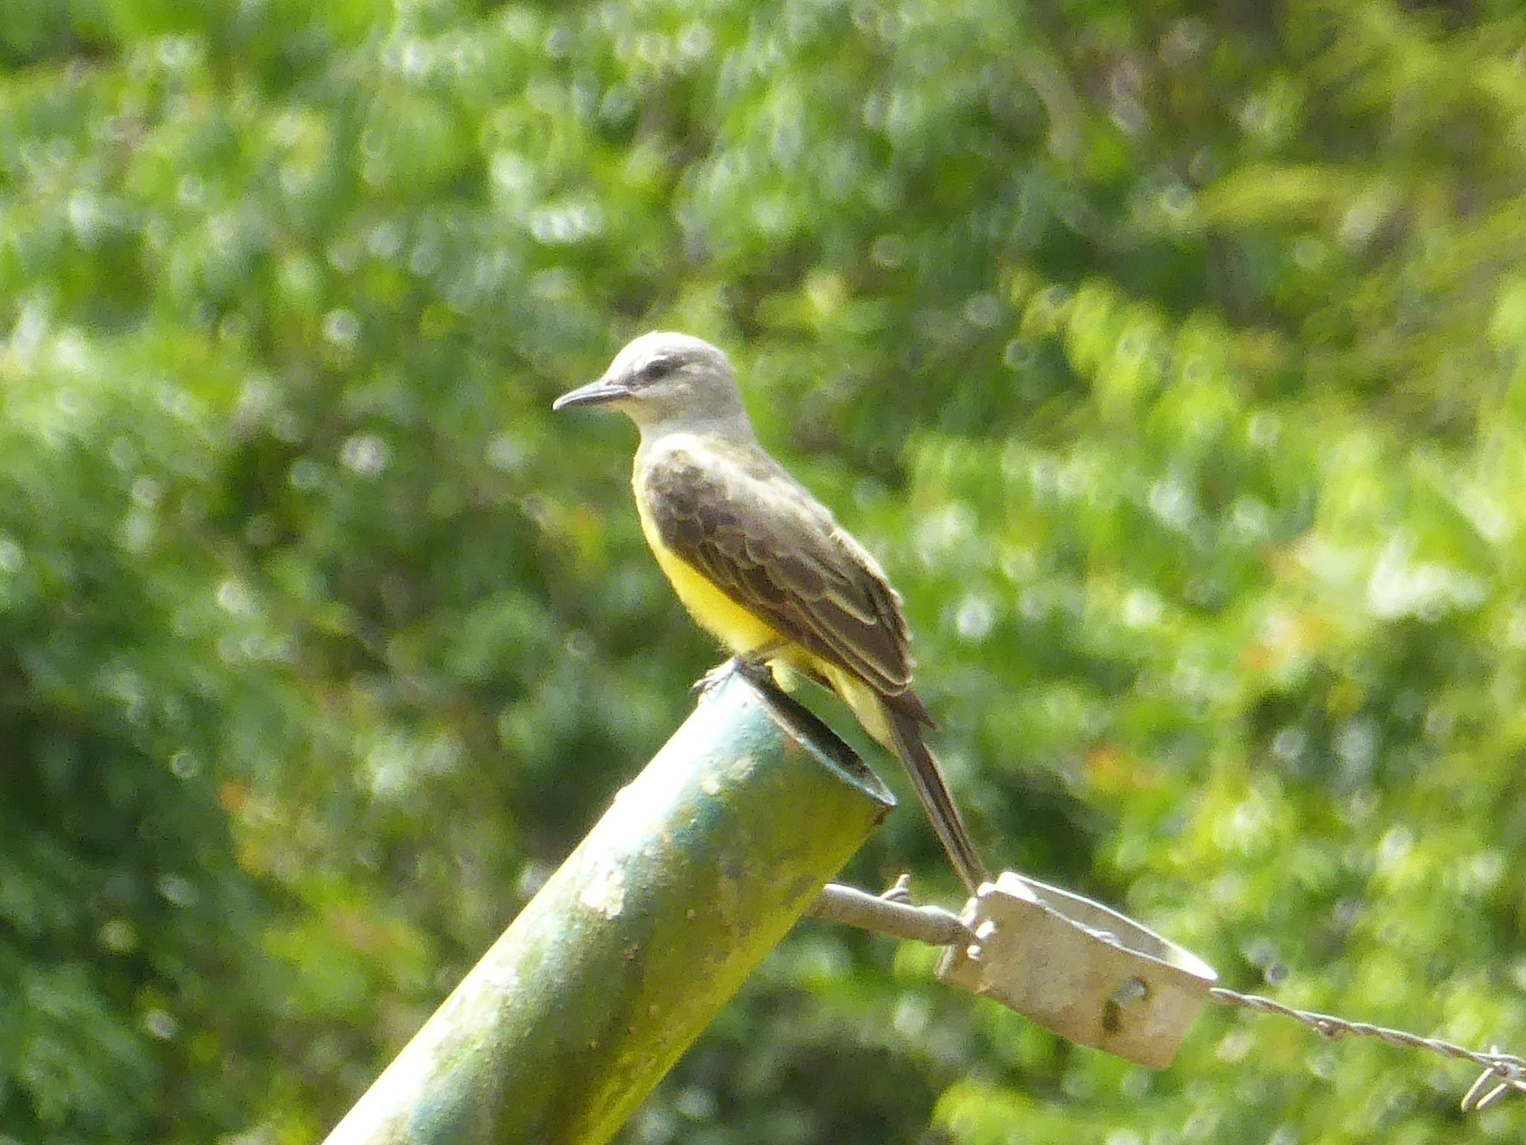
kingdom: Animalia
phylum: Chordata
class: Aves
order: Passeriformes
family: Tyrannidae
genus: Tyrannus
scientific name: Tyrannus melancholicus
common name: Tropical kingbird
